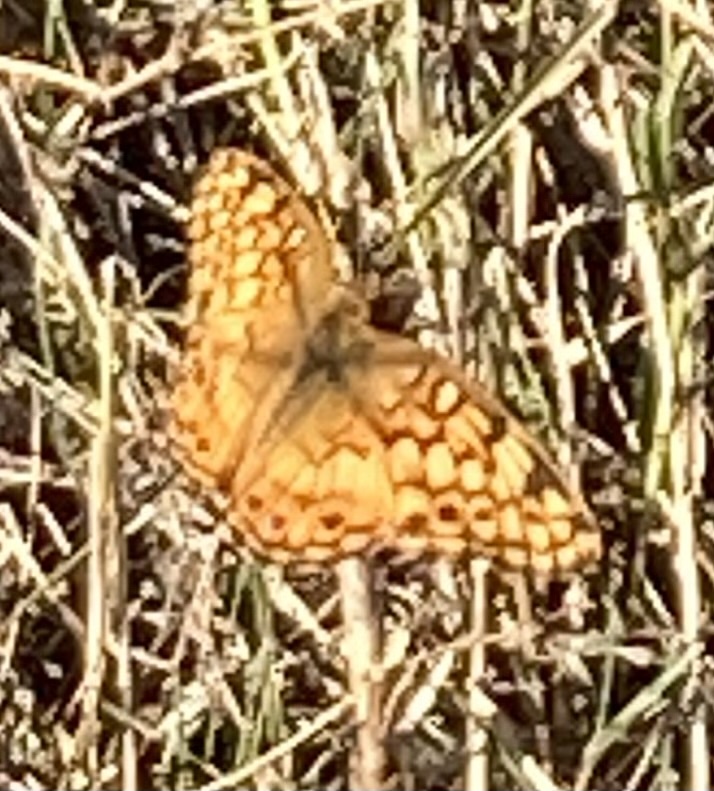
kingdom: Animalia
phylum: Arthropoda
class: Insecta
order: Lepidoptera
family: Nymphalidae
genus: Euptoieta
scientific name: Euptoieta claudia
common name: Variegated fritillary
